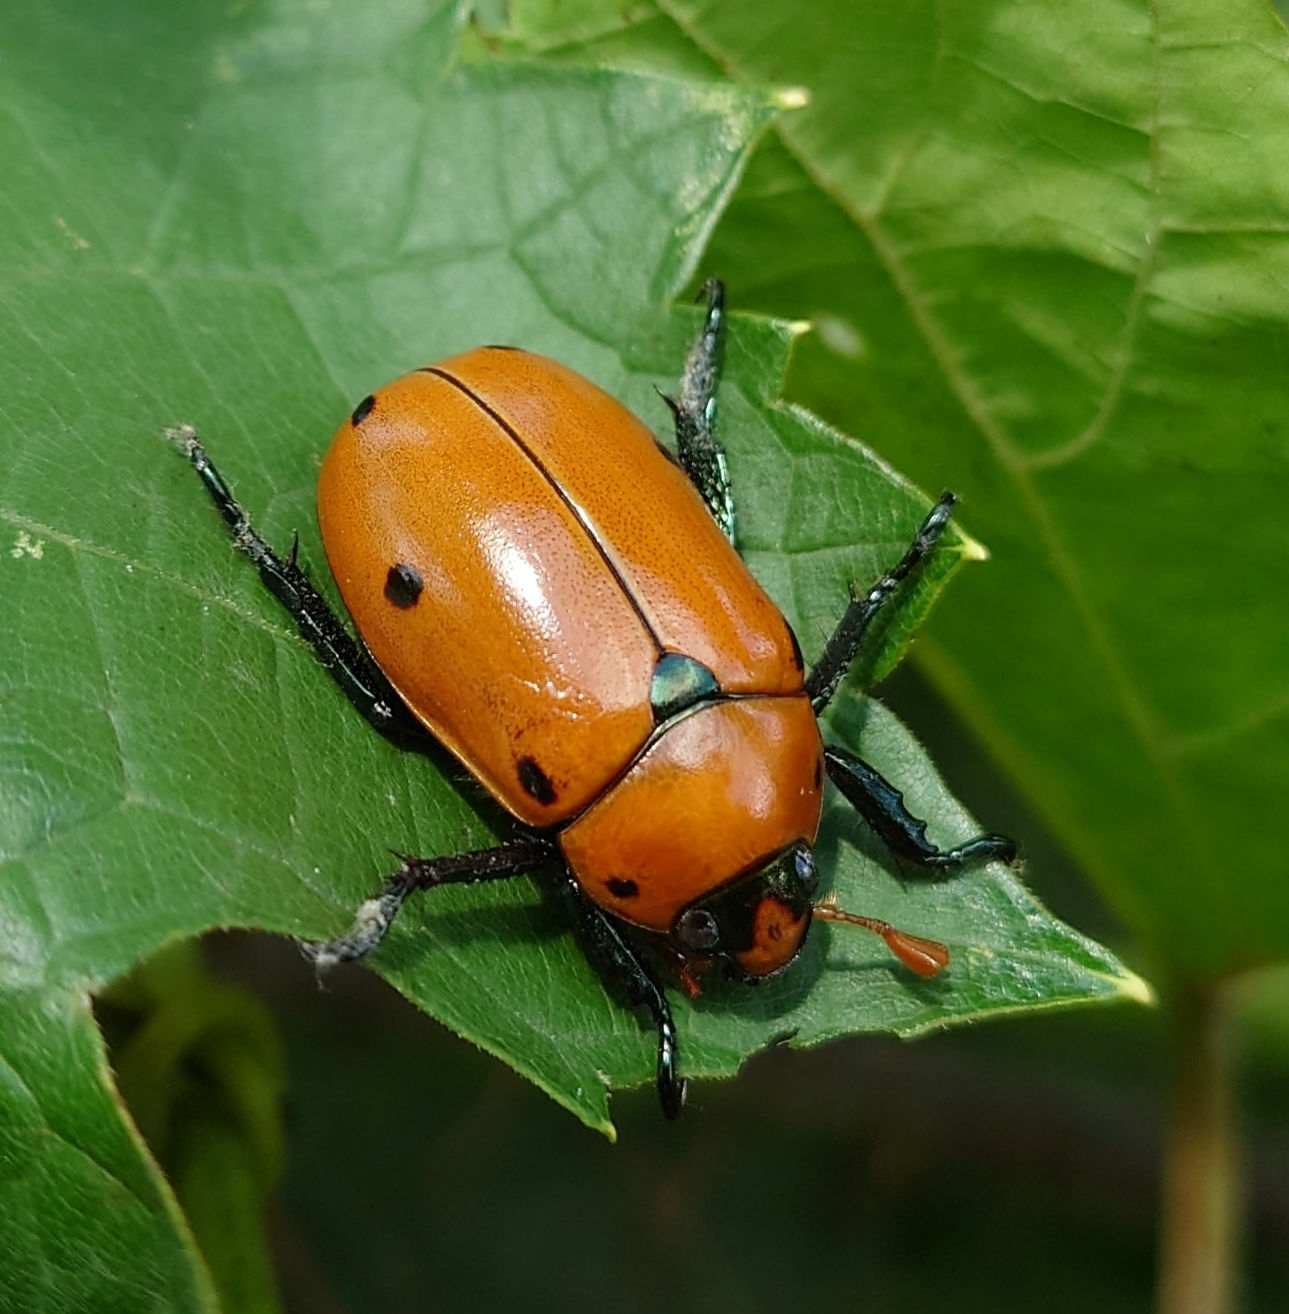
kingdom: Animalia
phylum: Arthropoda
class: Insecta
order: Coleoptera
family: Scarabaeidae
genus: Pelidnota
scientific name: Pelidnota punctata
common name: Grapevine beetle
